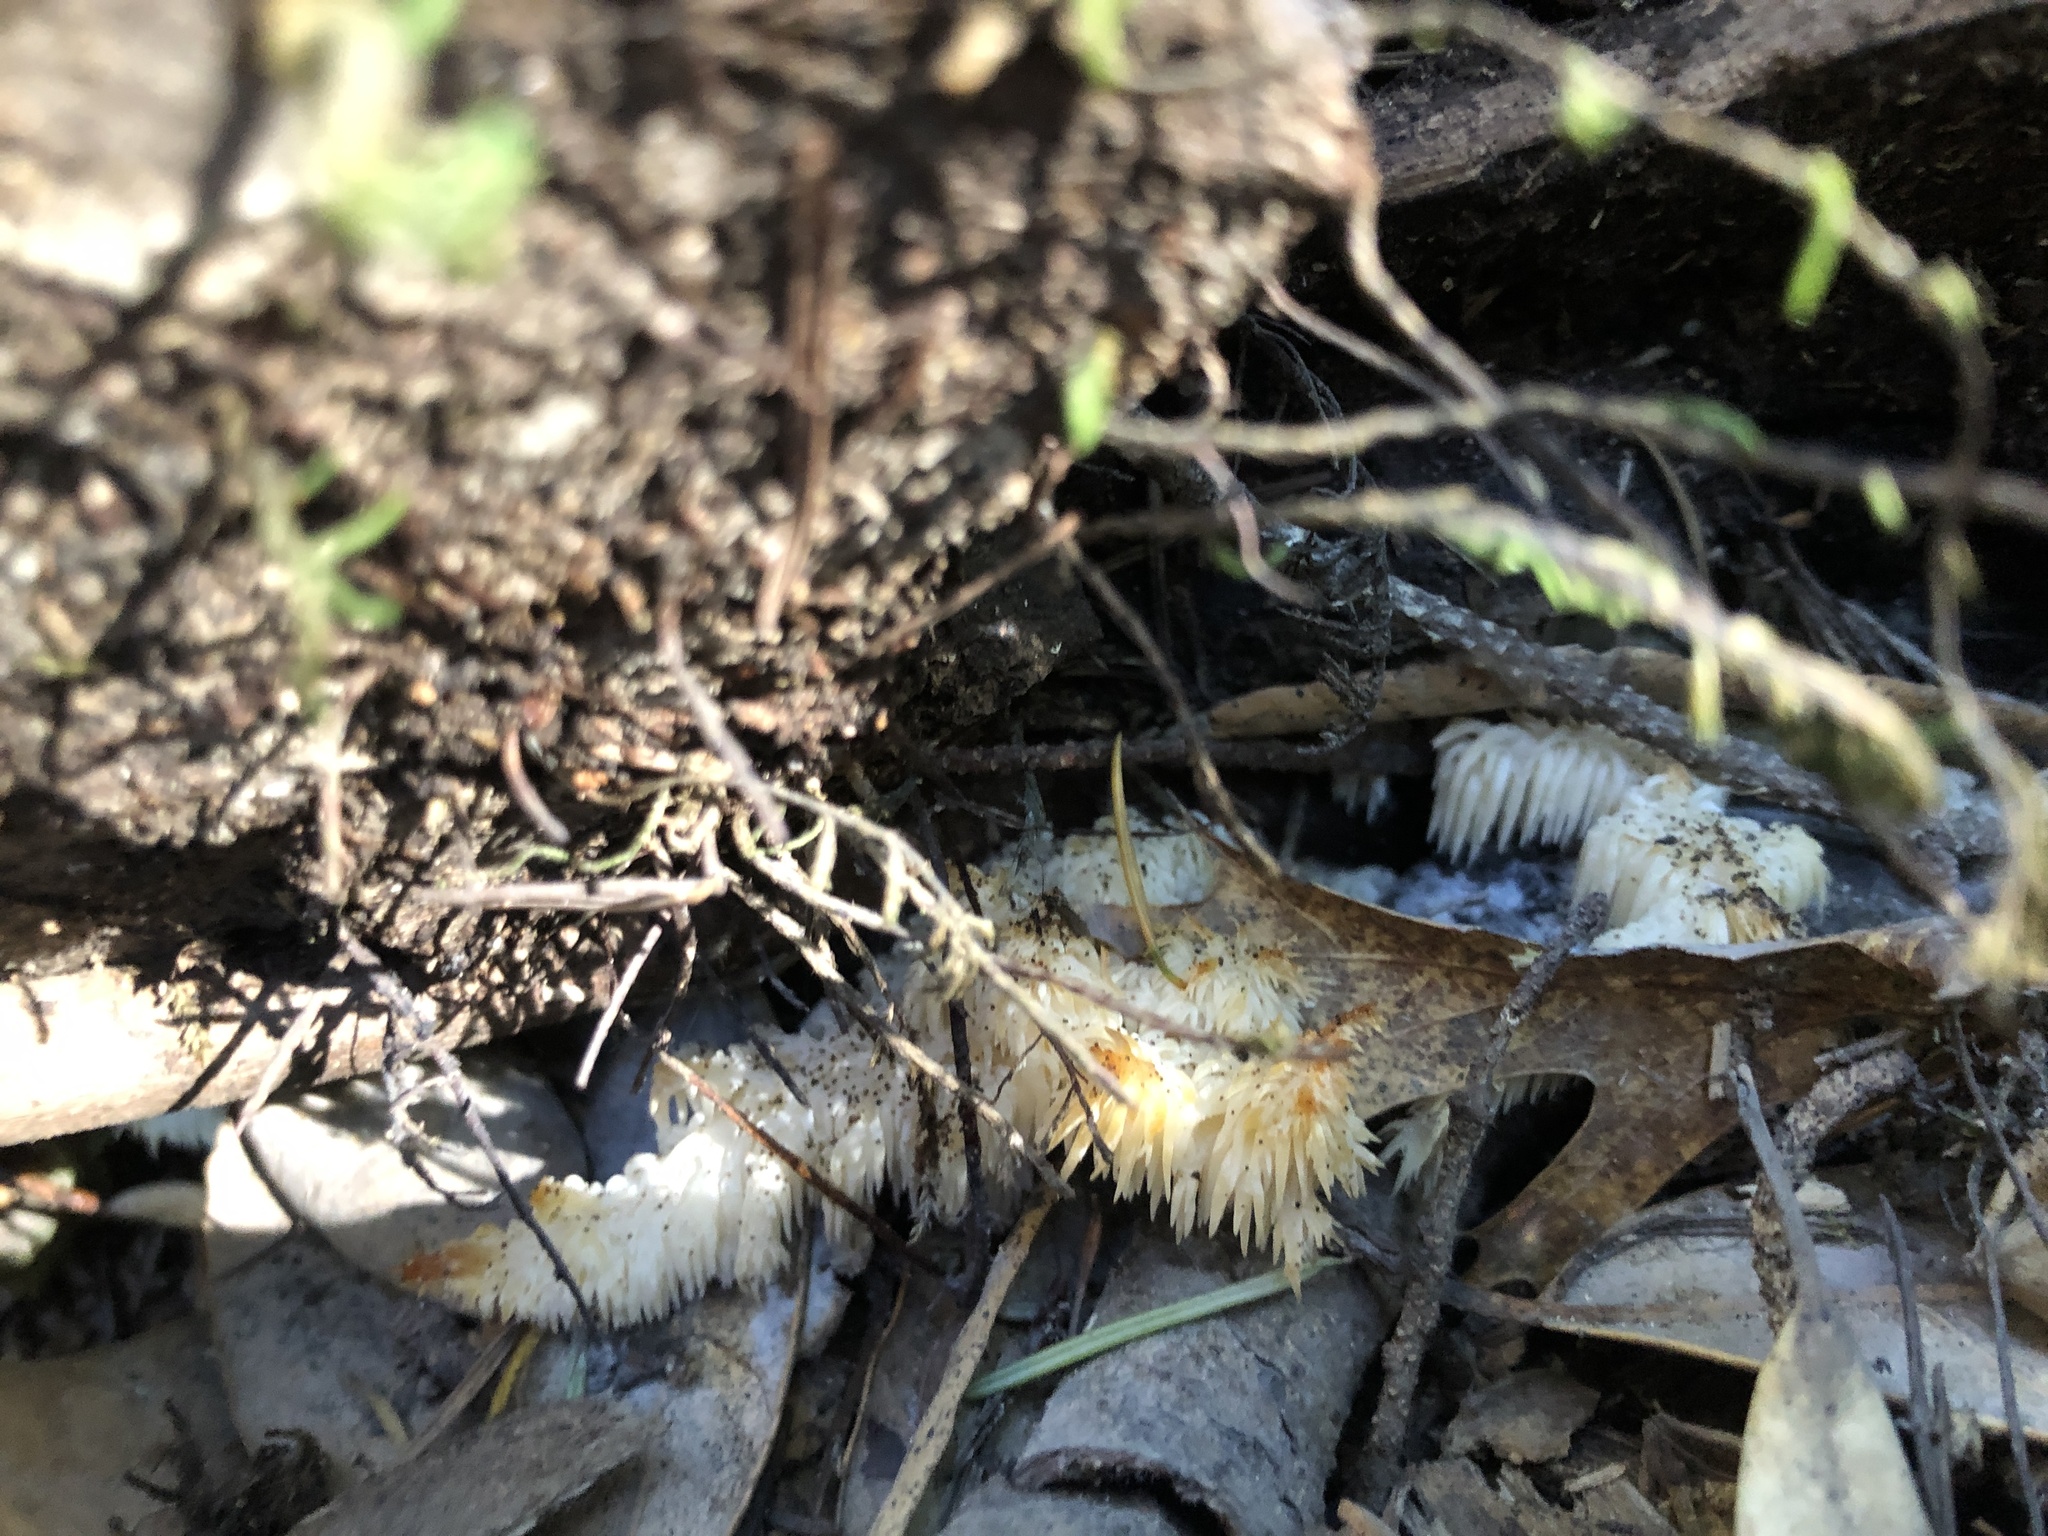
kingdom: Fungi
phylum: Basidiomycota
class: Agaricomycetes
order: Russulales
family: Hericiaceae
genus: Hericium
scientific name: Hericium coralloides
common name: Coral tooth
